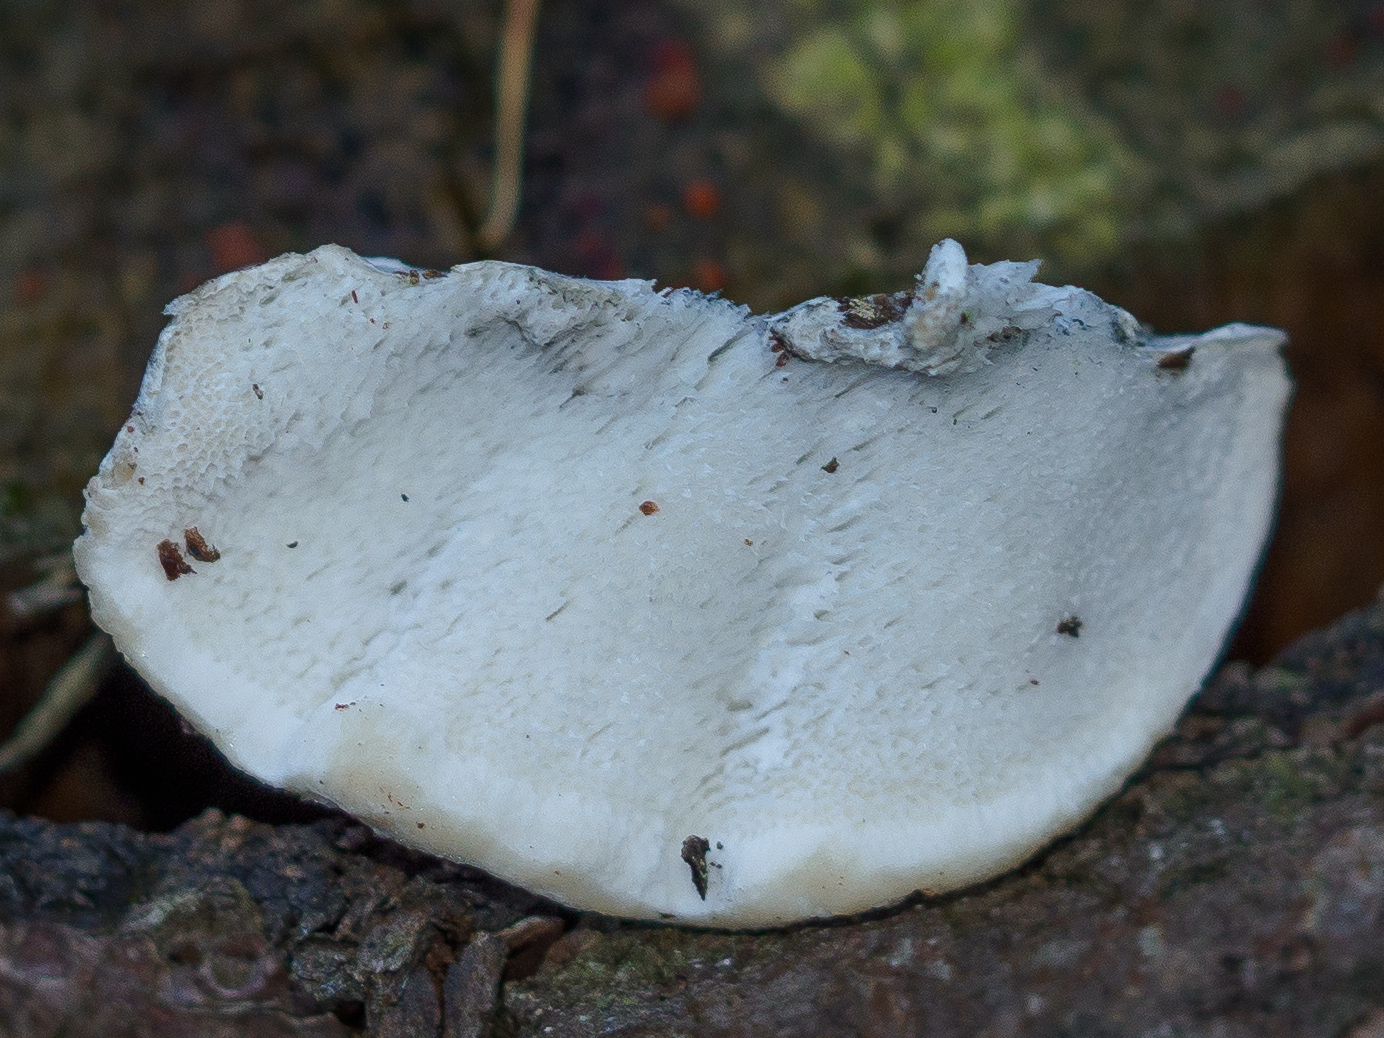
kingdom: Fungi
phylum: Basidiomycota
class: Agaricomycetes
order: Polyporales
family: Polyporaceae
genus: Cyanosporus
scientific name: Cyanosporus caesius
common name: Blue cheese polypore
